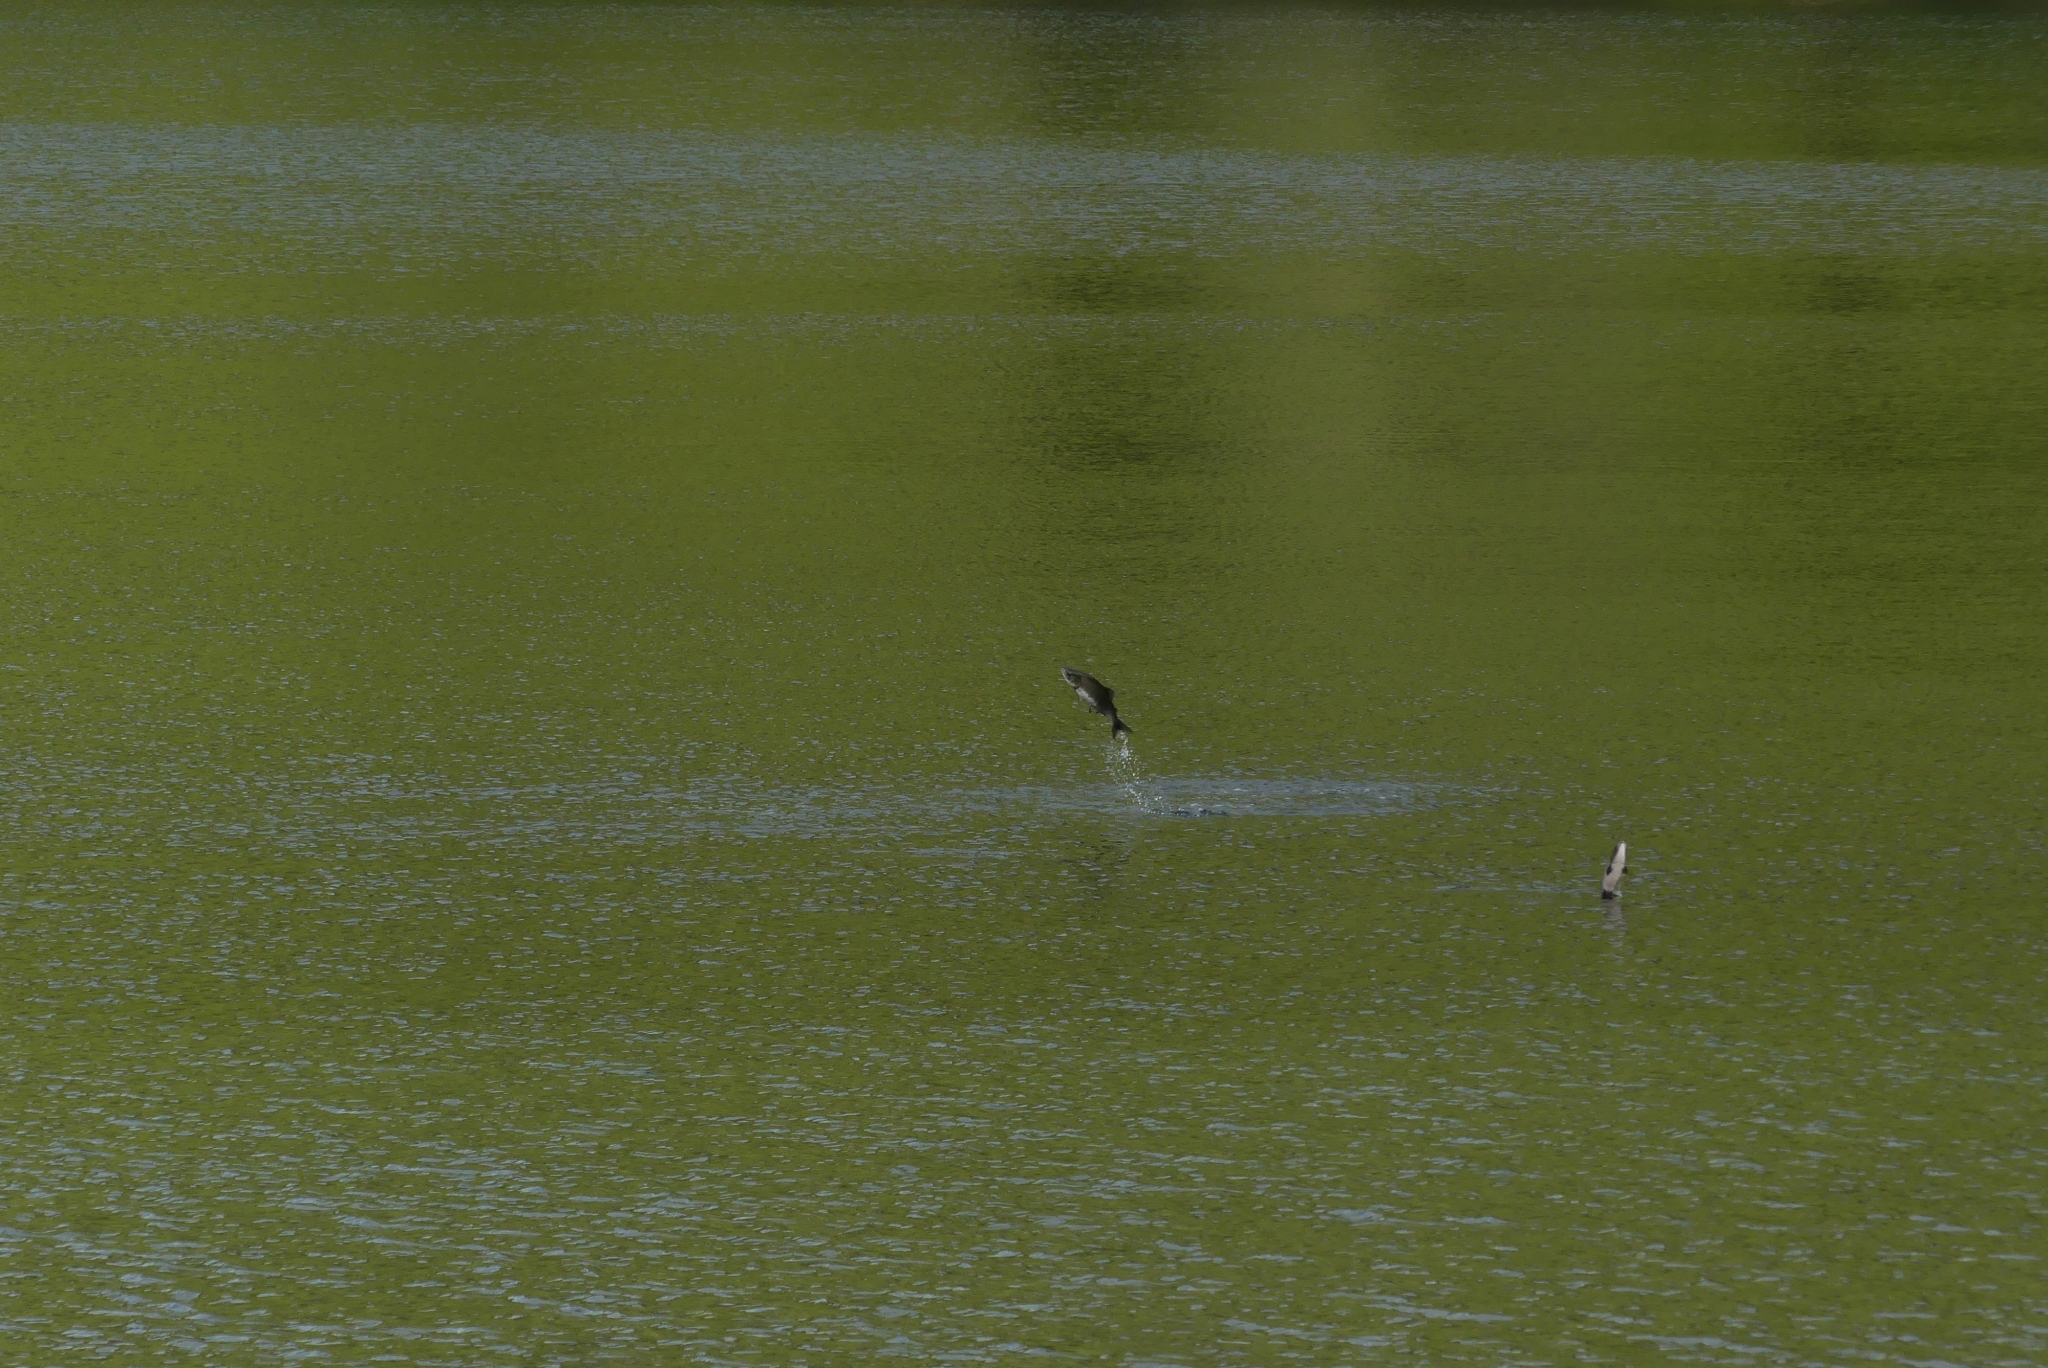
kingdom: Animalia
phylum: Chordata
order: Salmoniformes
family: Salmonidae
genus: Oncorhynchus
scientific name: Oncorhynchus gorbuscha
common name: Humpback salmon
